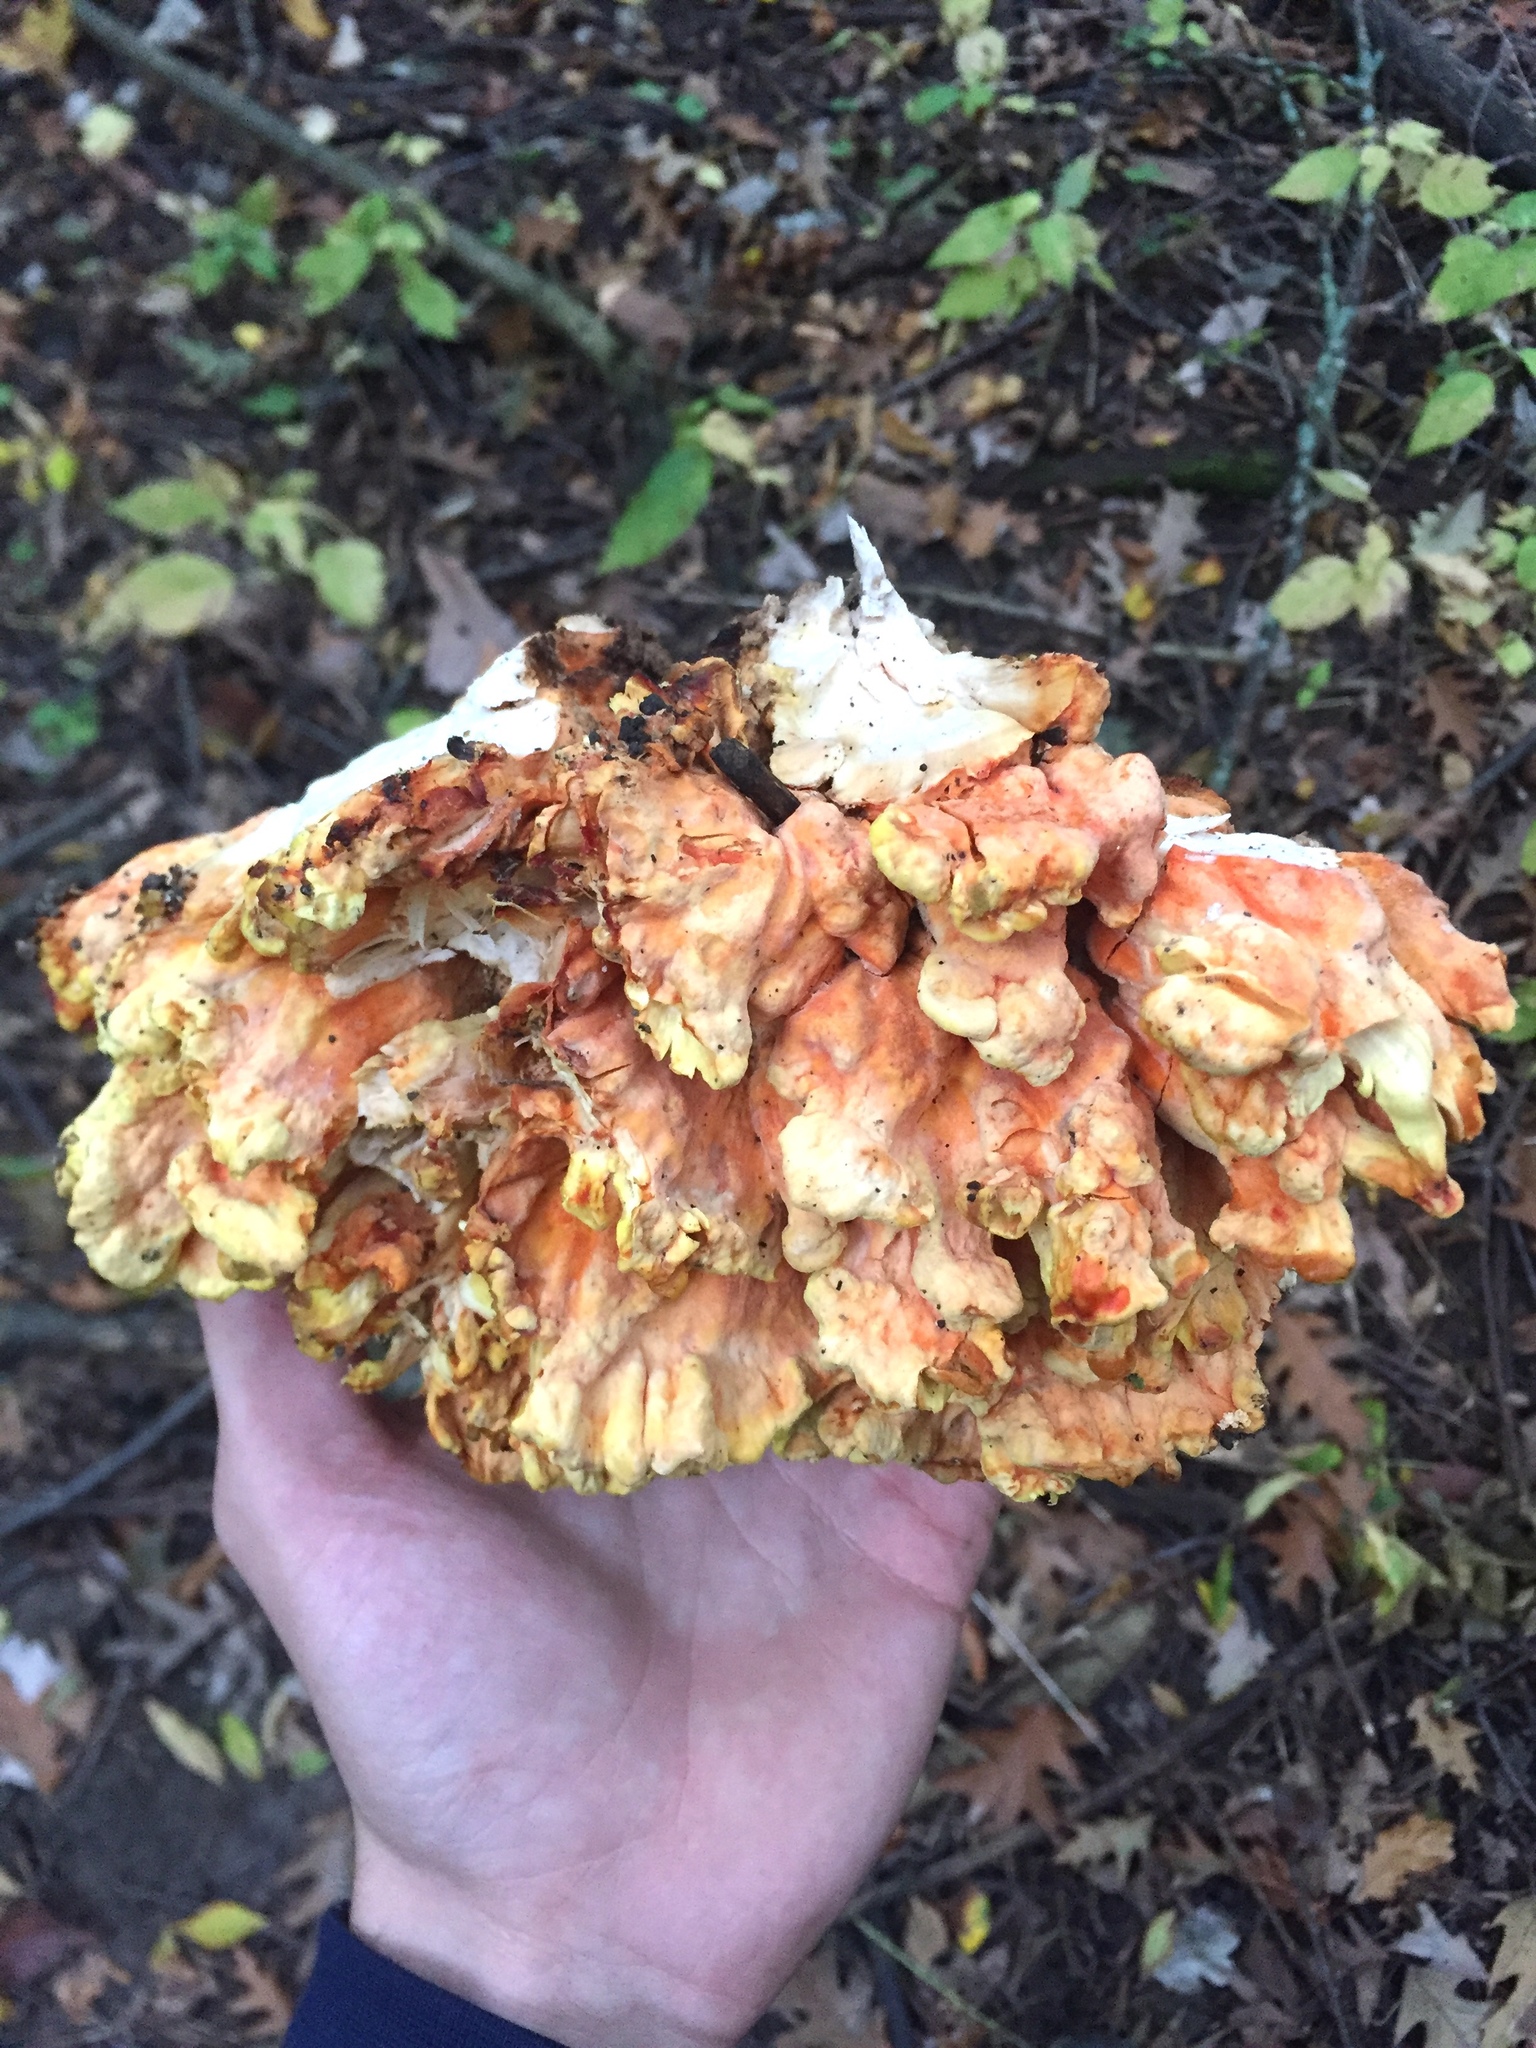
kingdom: Fungi
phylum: Basidiomycota
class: Agaricomycetes
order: Polyporales
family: Laetiporaceae
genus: Laetiporus
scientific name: Laetiporus sulphureus
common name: Chicken of the woods
